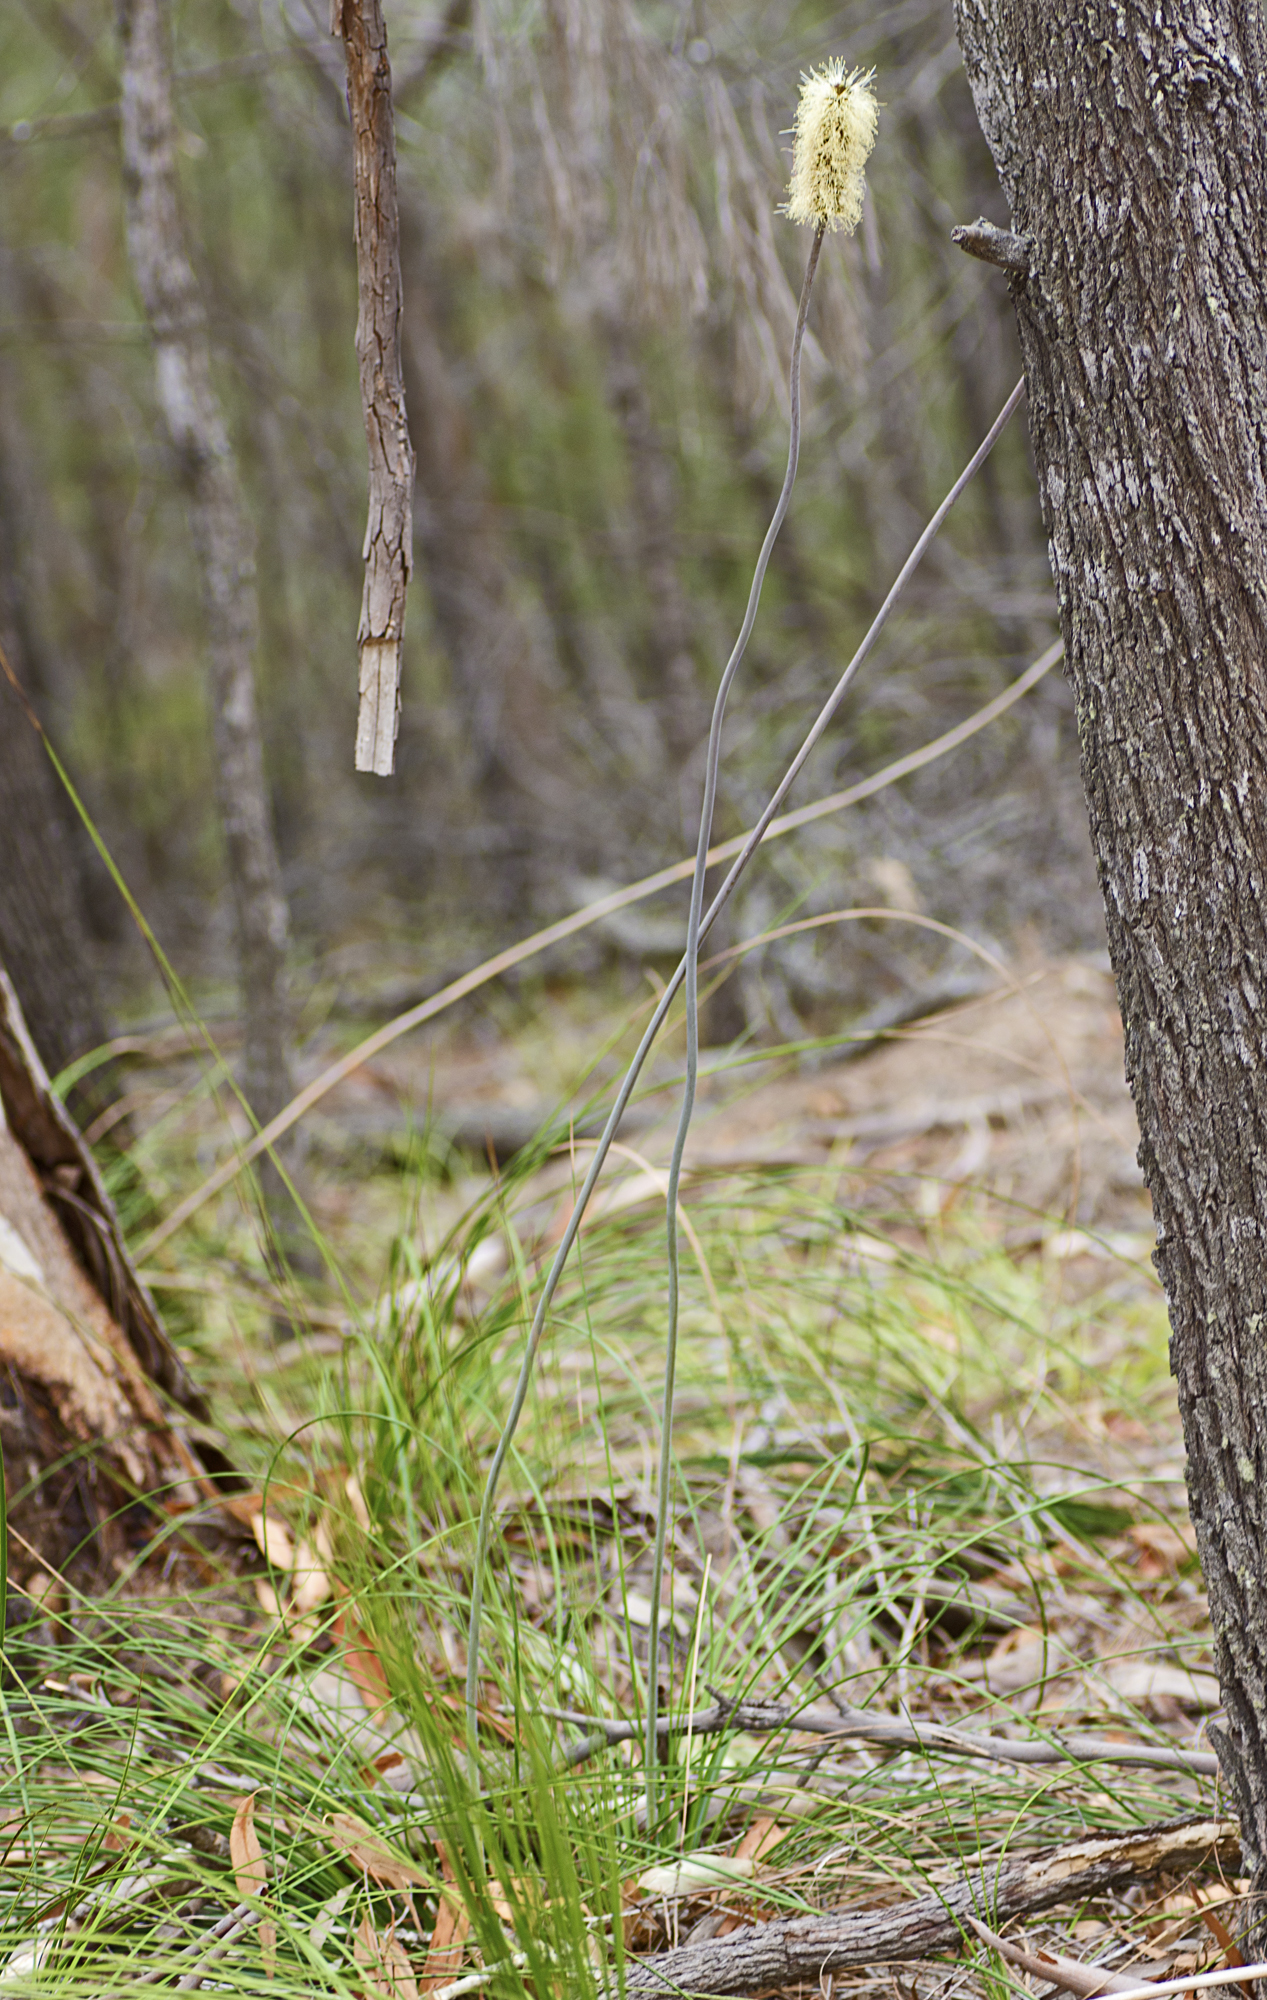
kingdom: Plantae
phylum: Tracheophyta
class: Liliopsida
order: Asparagales
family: Asphodelaceae
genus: Xanthorrhoea
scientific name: Xanthorrhoea macronema
